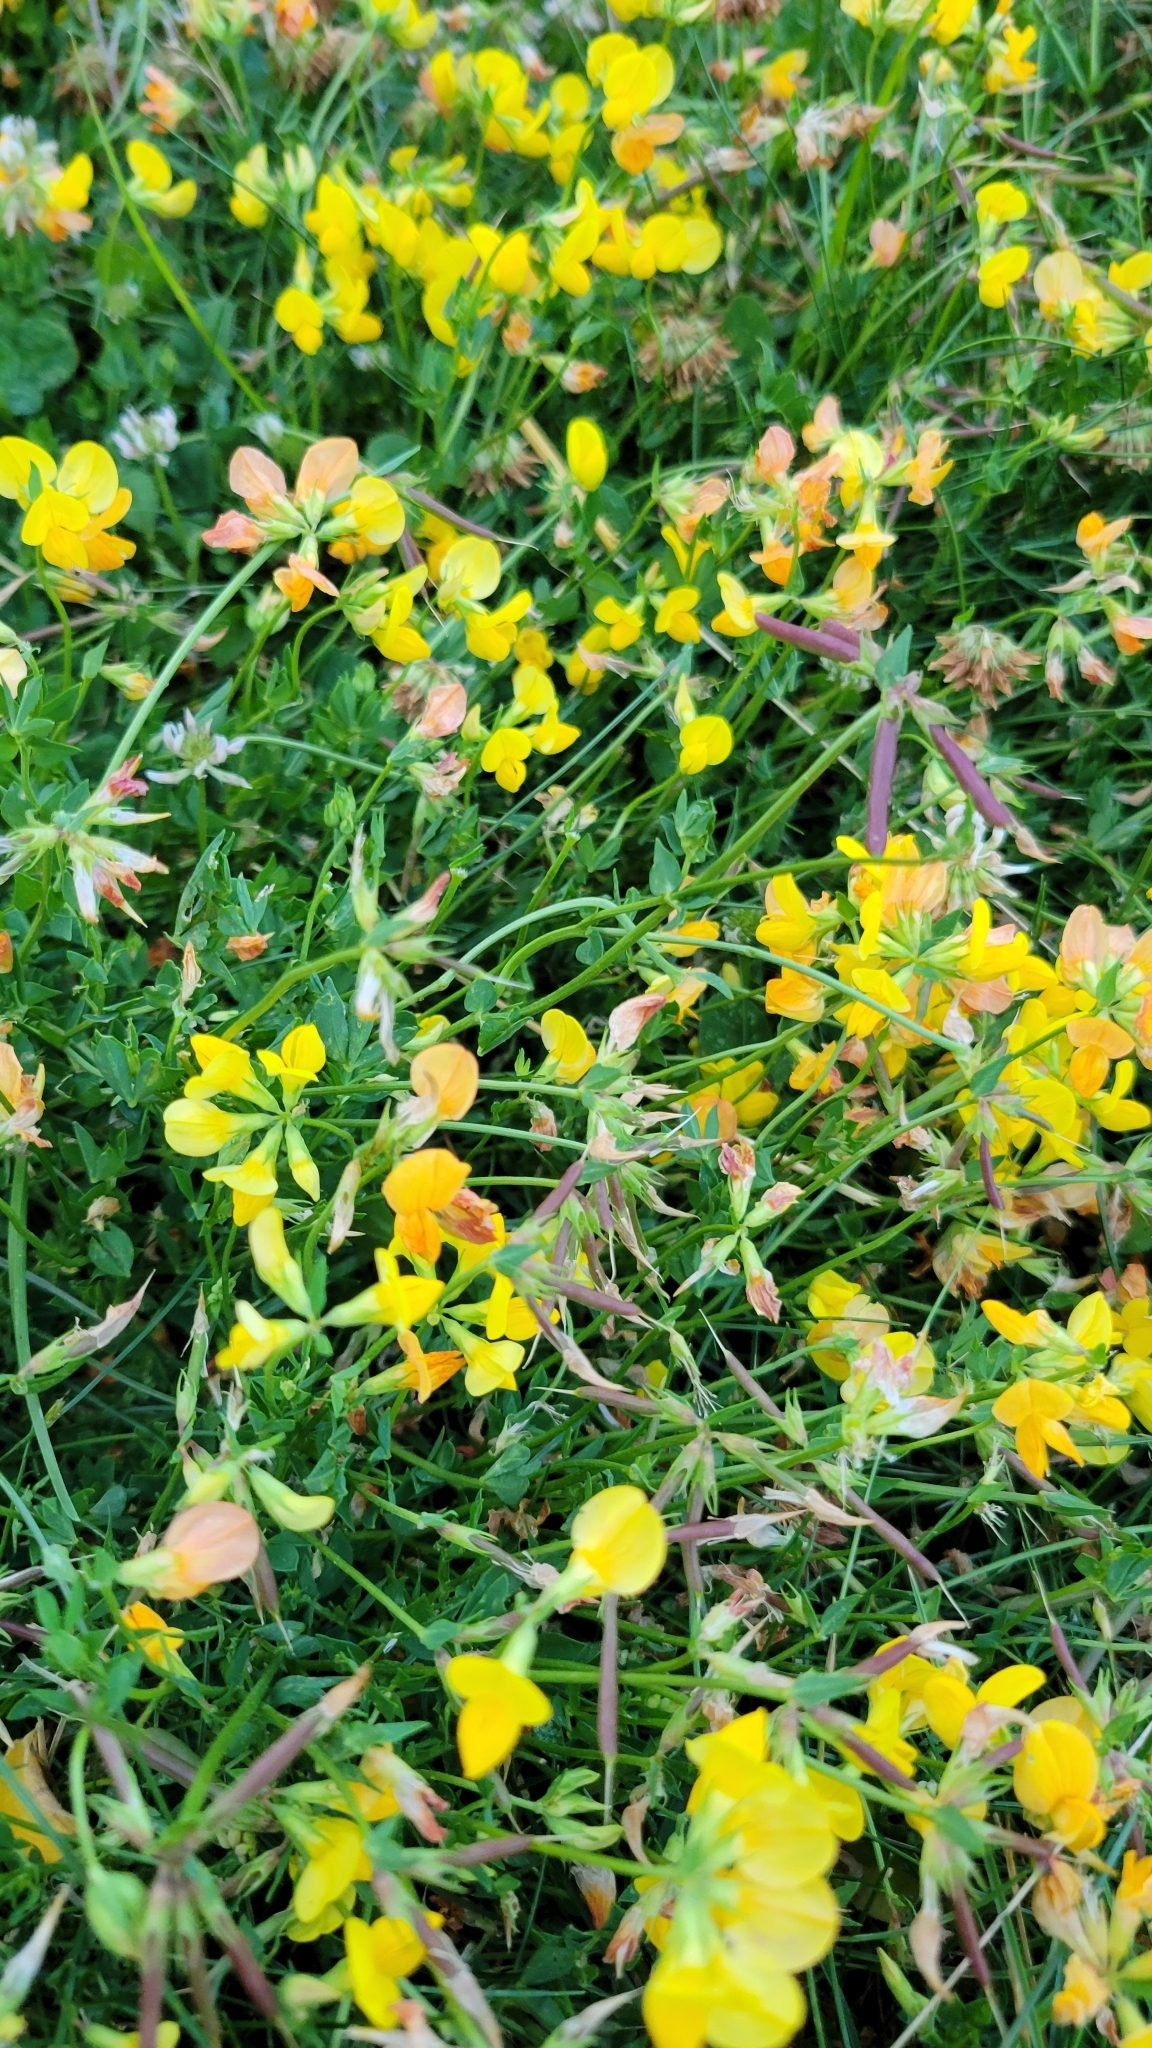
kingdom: Plantae
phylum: Tracheophyta
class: Magnoliopsida
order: Fabales
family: Fabaceae
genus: Lotus
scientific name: Lotus corniculatus
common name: Common bird's-foot-trefoil
